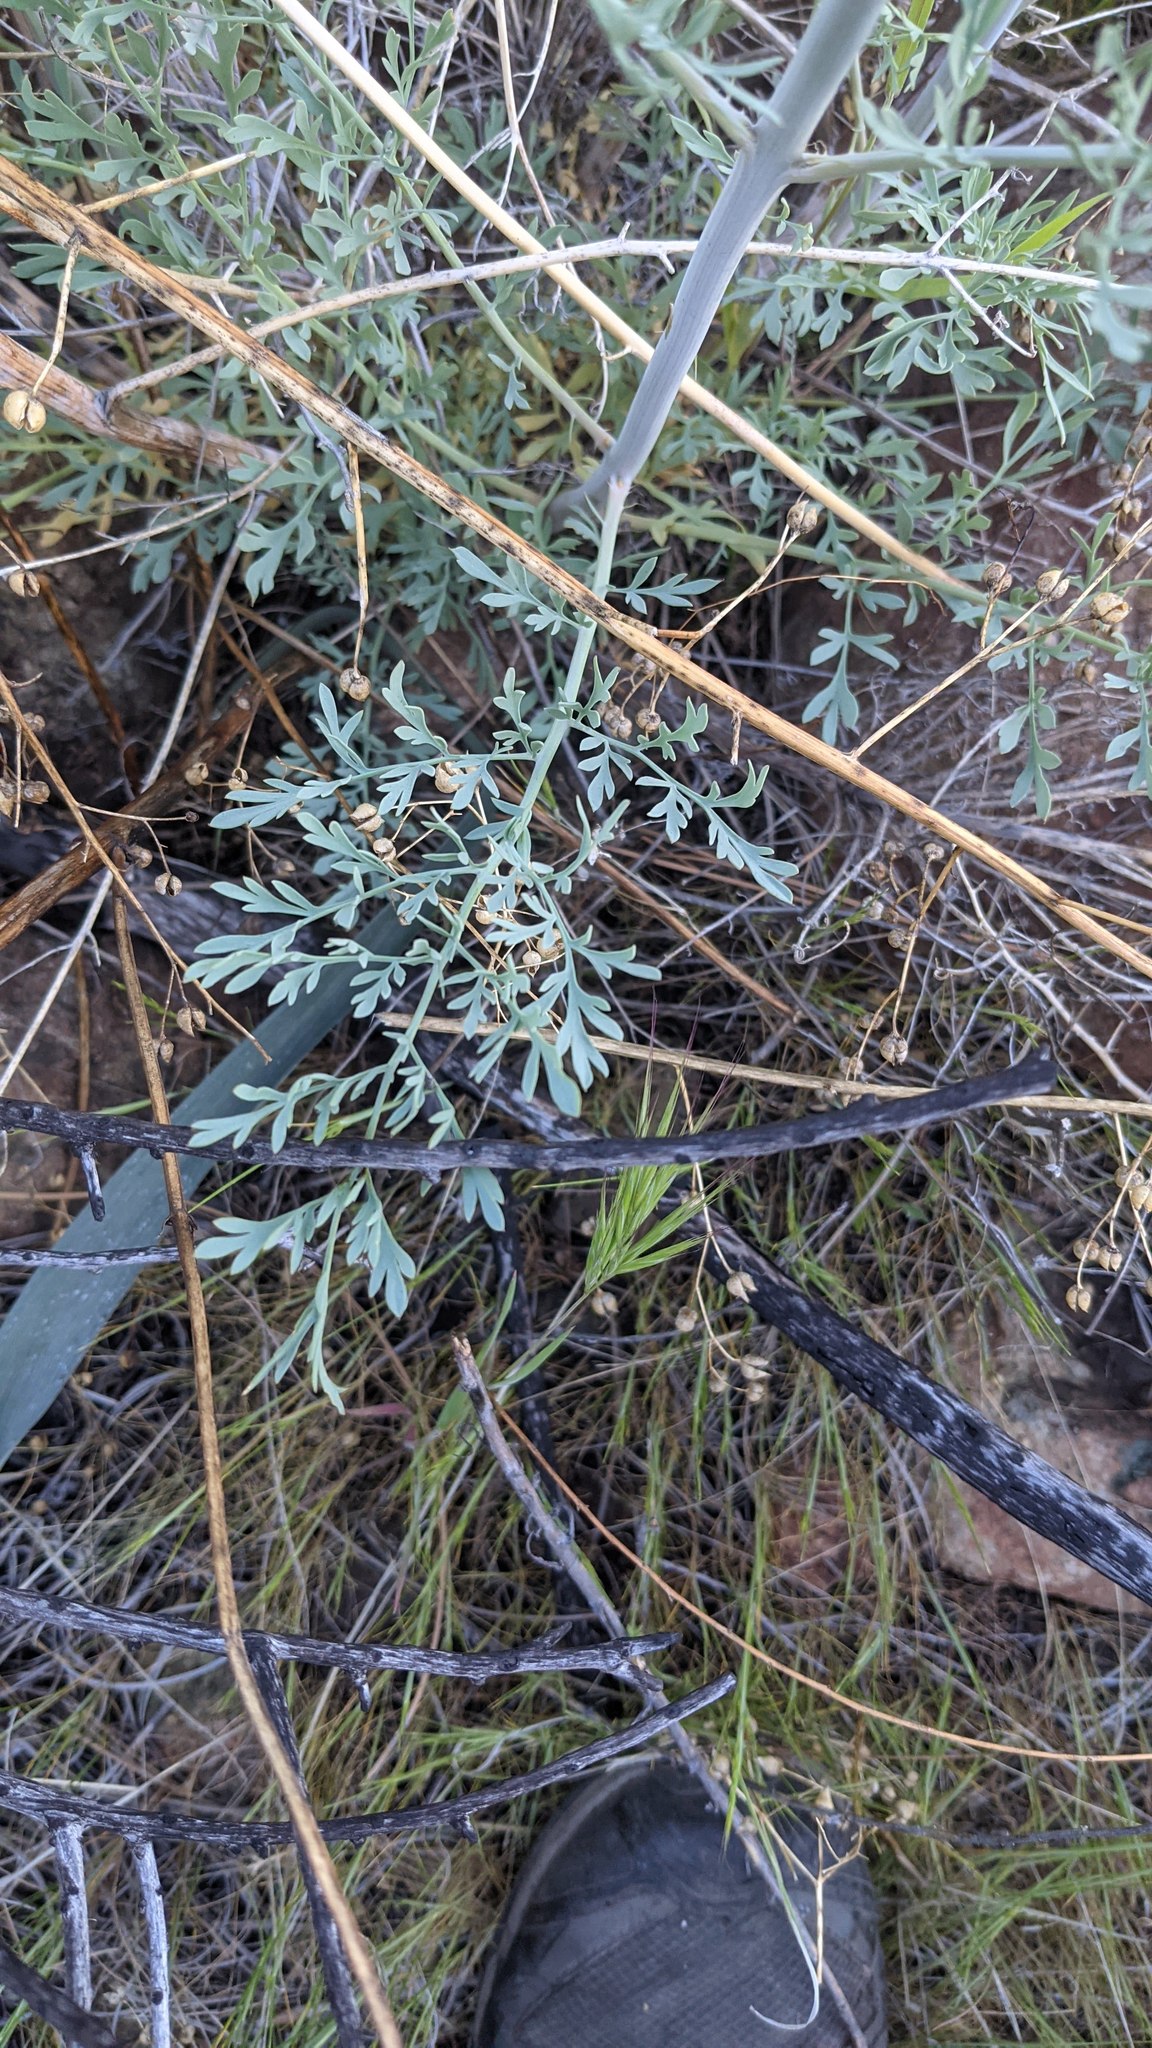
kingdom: Plantae
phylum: Tracheophyta
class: Magnoliopsida
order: Ranunculales
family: Papaveraceae
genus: Ehrendorferia
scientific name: Ehrendorferia chrysantha
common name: Golden eardrops
